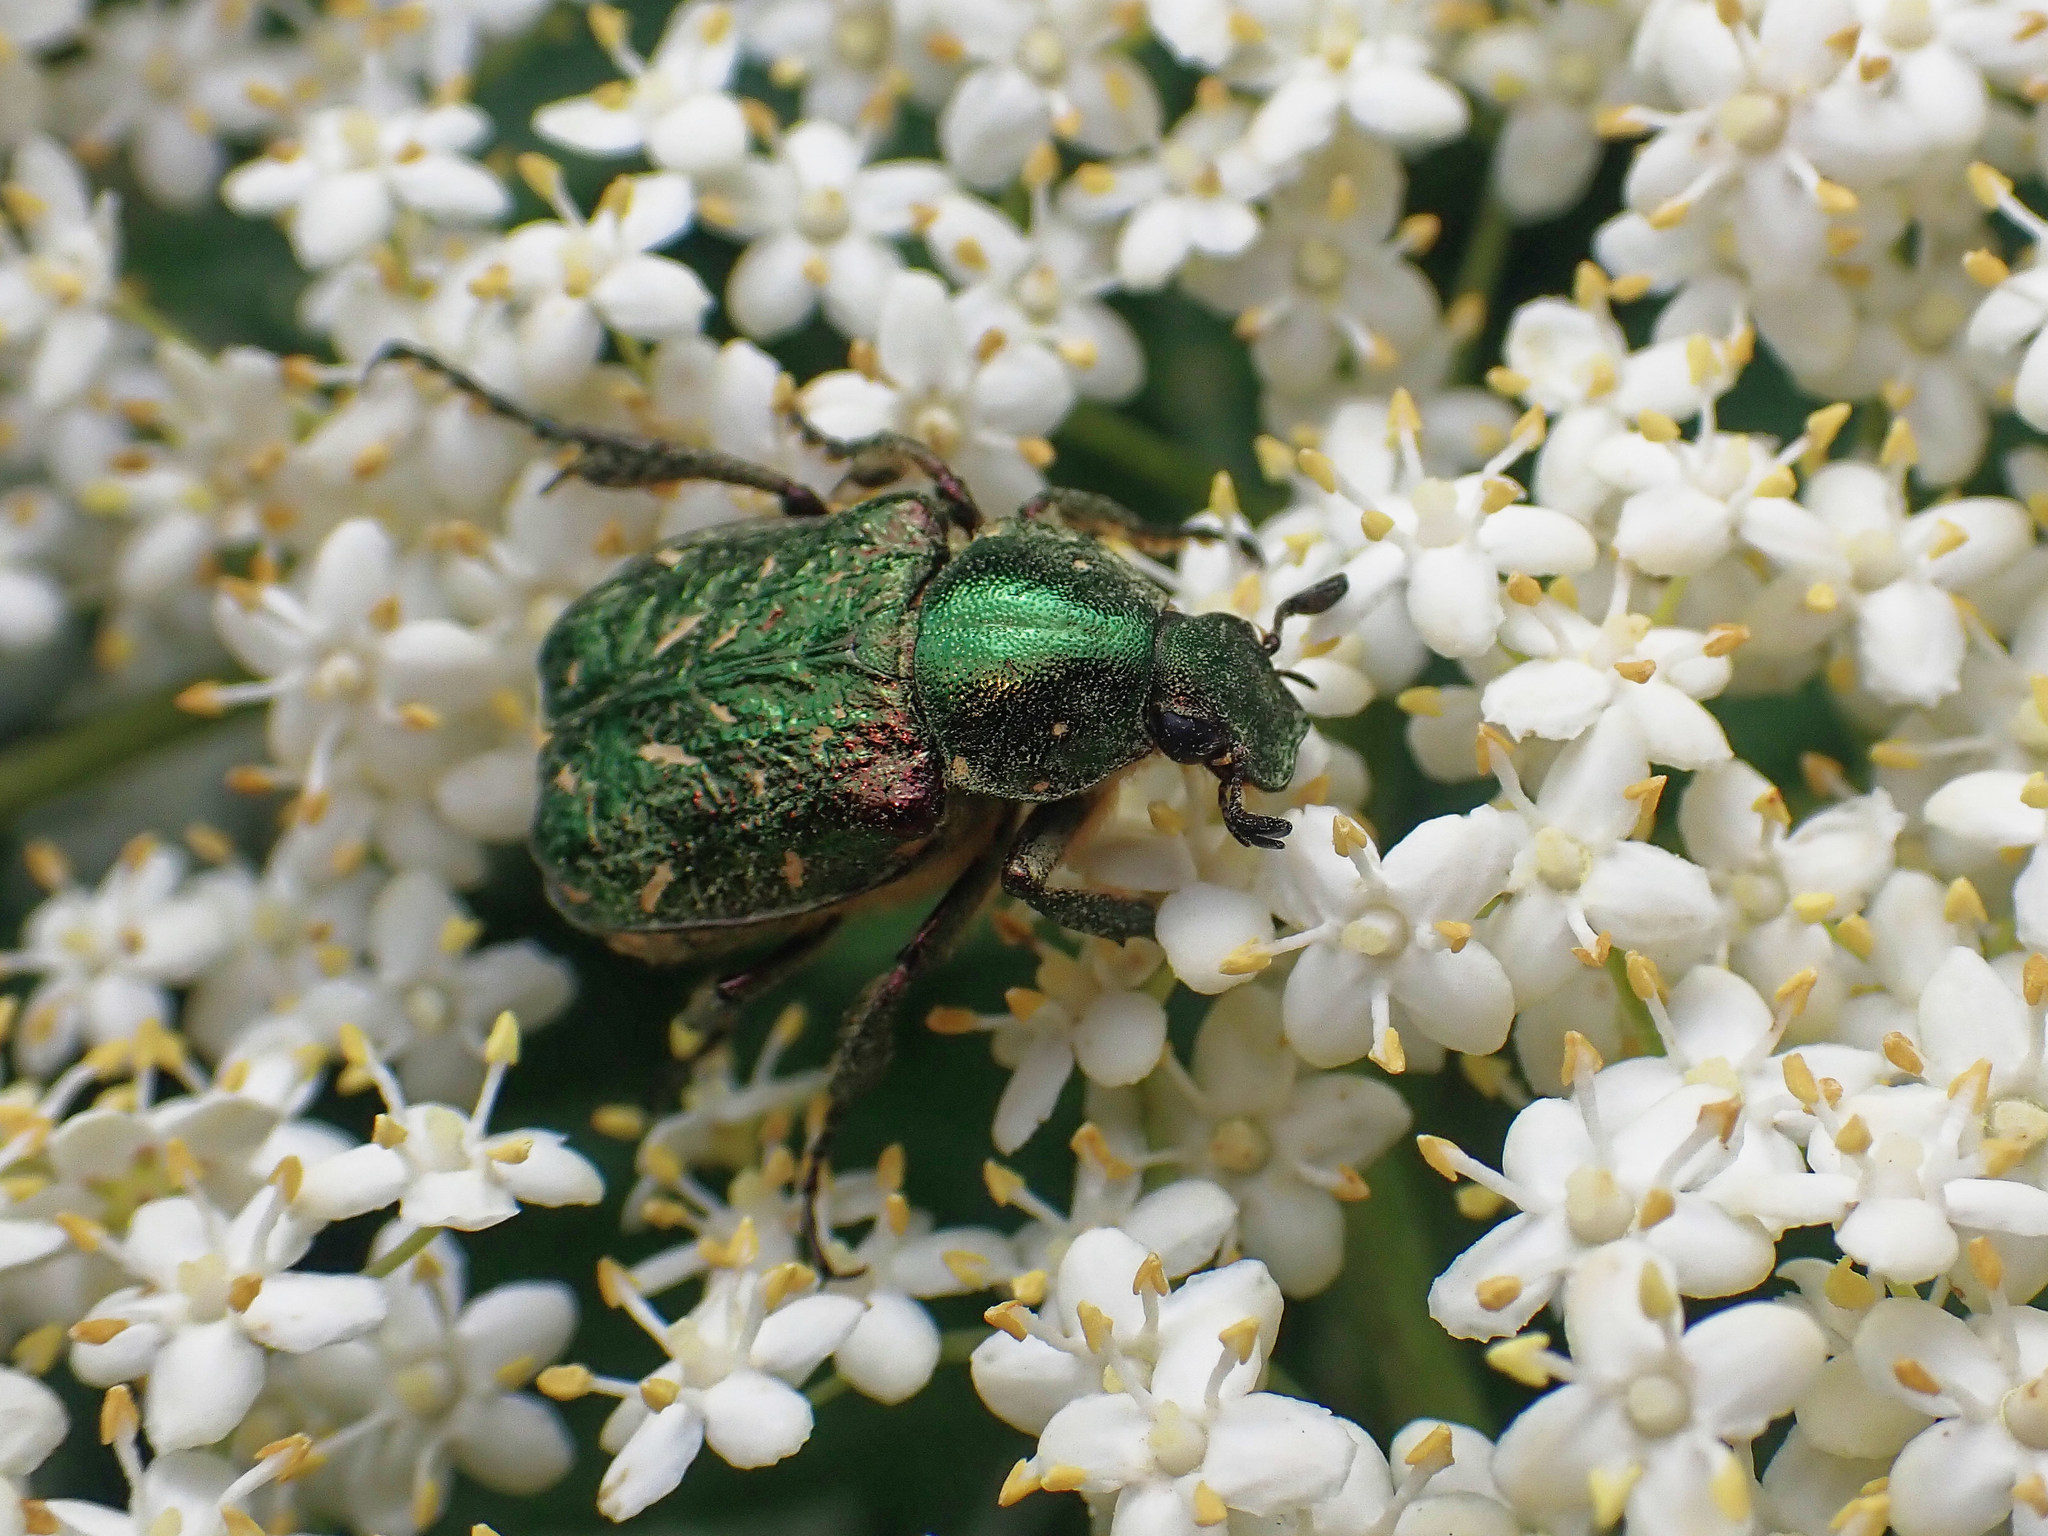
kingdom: Animalia
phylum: Arthropoda
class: Insecta
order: Coleoptera
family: Scarabaeidae
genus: Gnorimus
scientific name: Gnorimus nobilis
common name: Noble chafer
